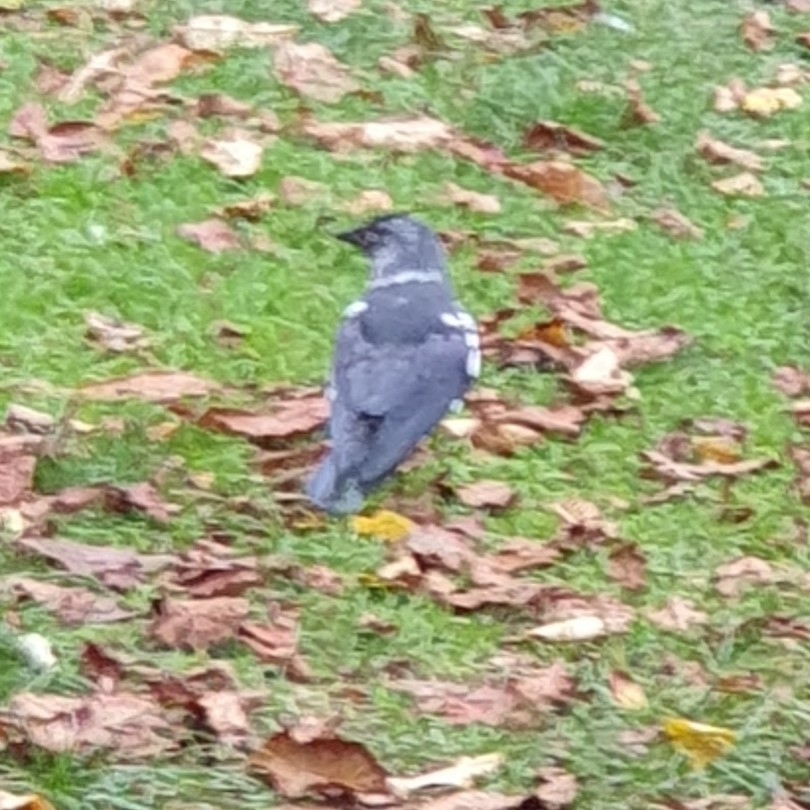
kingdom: Animalia
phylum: Chordata
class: Aves
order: Passeriformes
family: Corvidae
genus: Coloeus
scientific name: Coloeus monedula
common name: Western jackdaw
